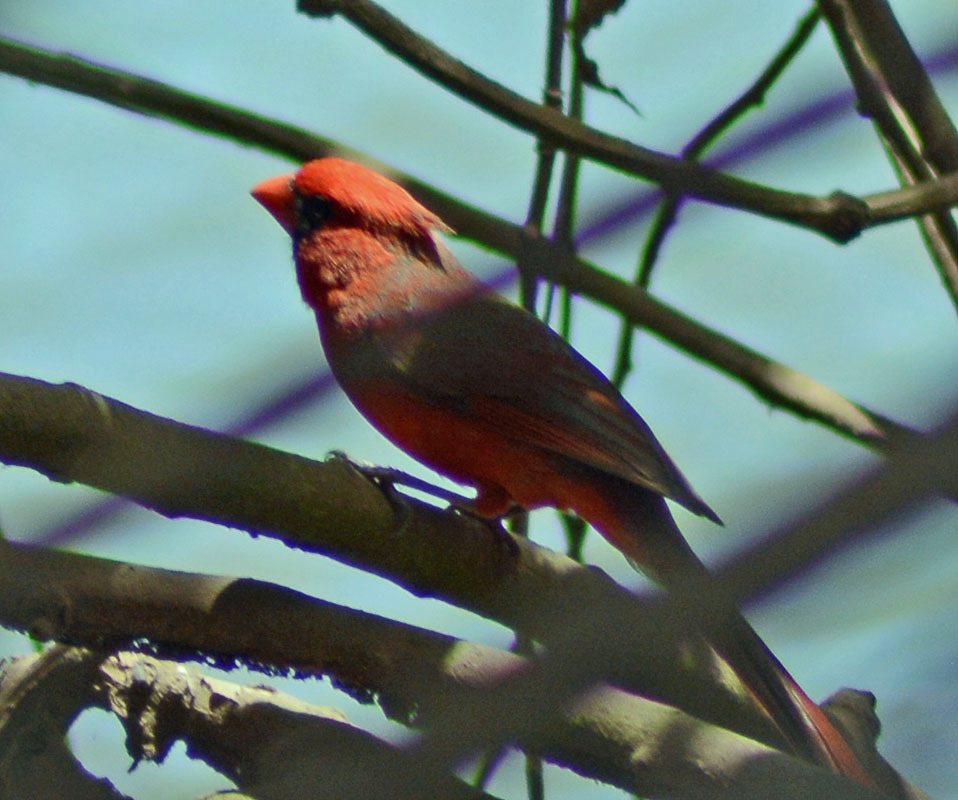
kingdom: Animalia
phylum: Chordata
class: Aves
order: Passeriformes
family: Cardinalidae
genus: Cardinalis
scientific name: Cardinalis cardinalis
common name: Northern cardinal
